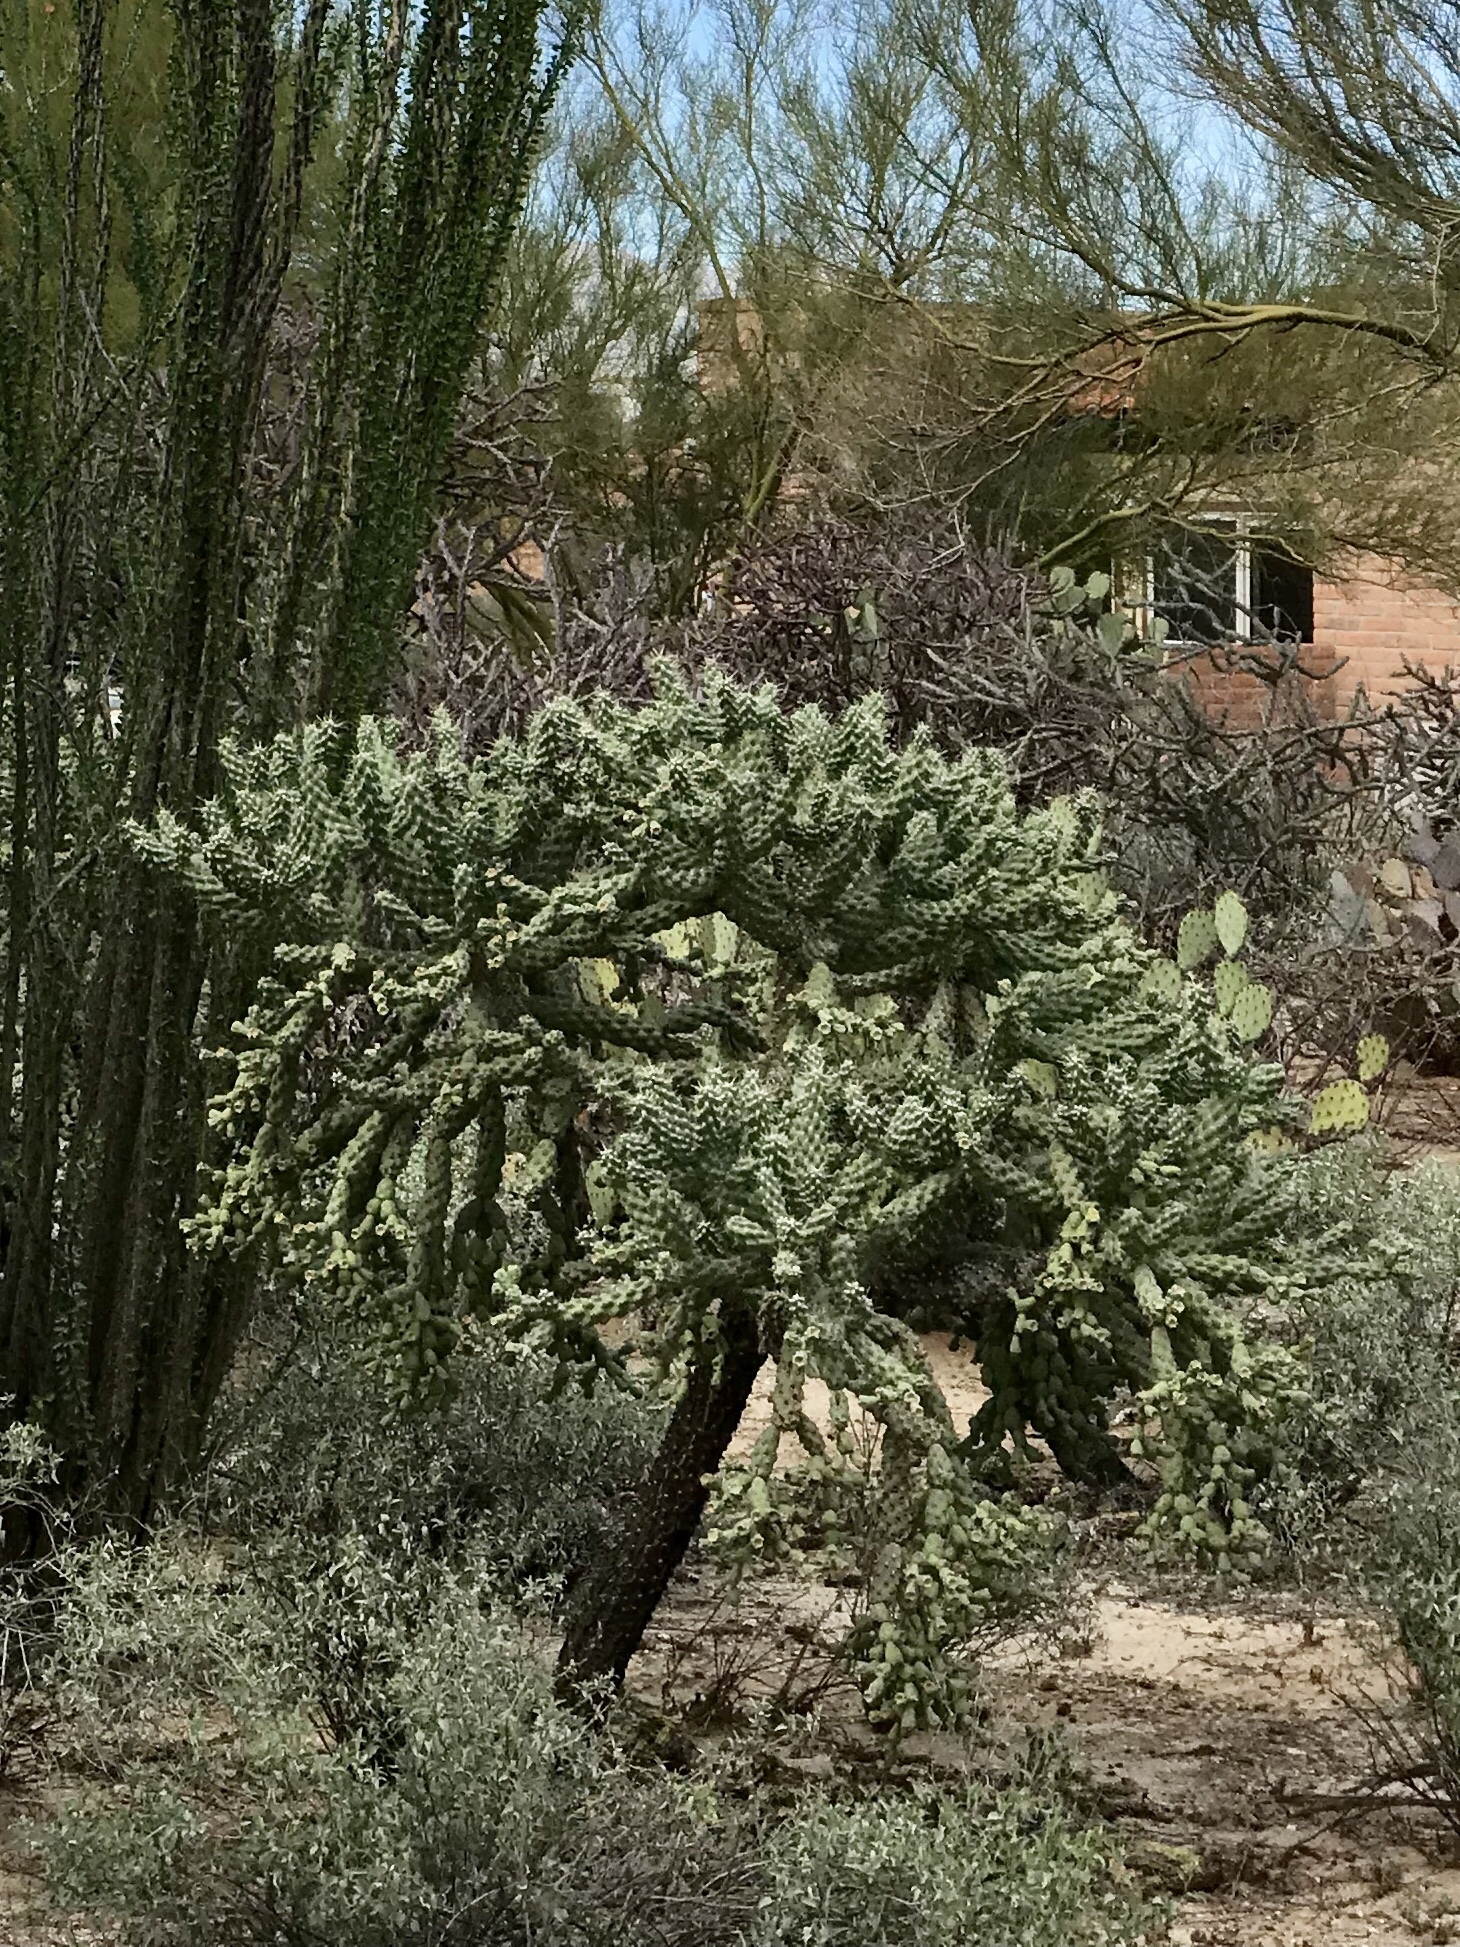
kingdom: Plantae
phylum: Tracheophyta
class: Magnoliopsida
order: Caryophyllales
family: Cactaceae
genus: Cylindropuntia
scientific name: Cylindropuntia fulgida
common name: Jumping cholla
